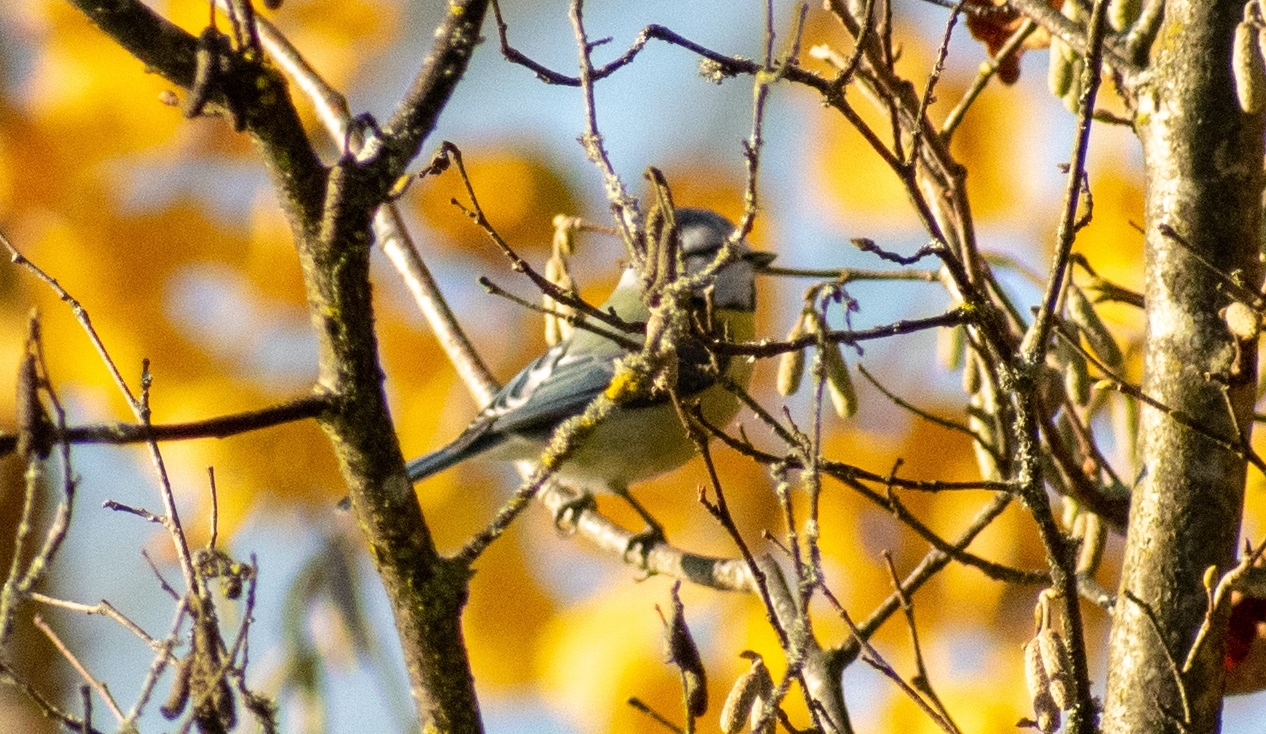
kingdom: Animalia
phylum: Chordata
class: Aves
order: Passeriformes
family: Paridae
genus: Cyanistes
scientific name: Cyanistes caeruleus
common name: Eurasian blue tit
